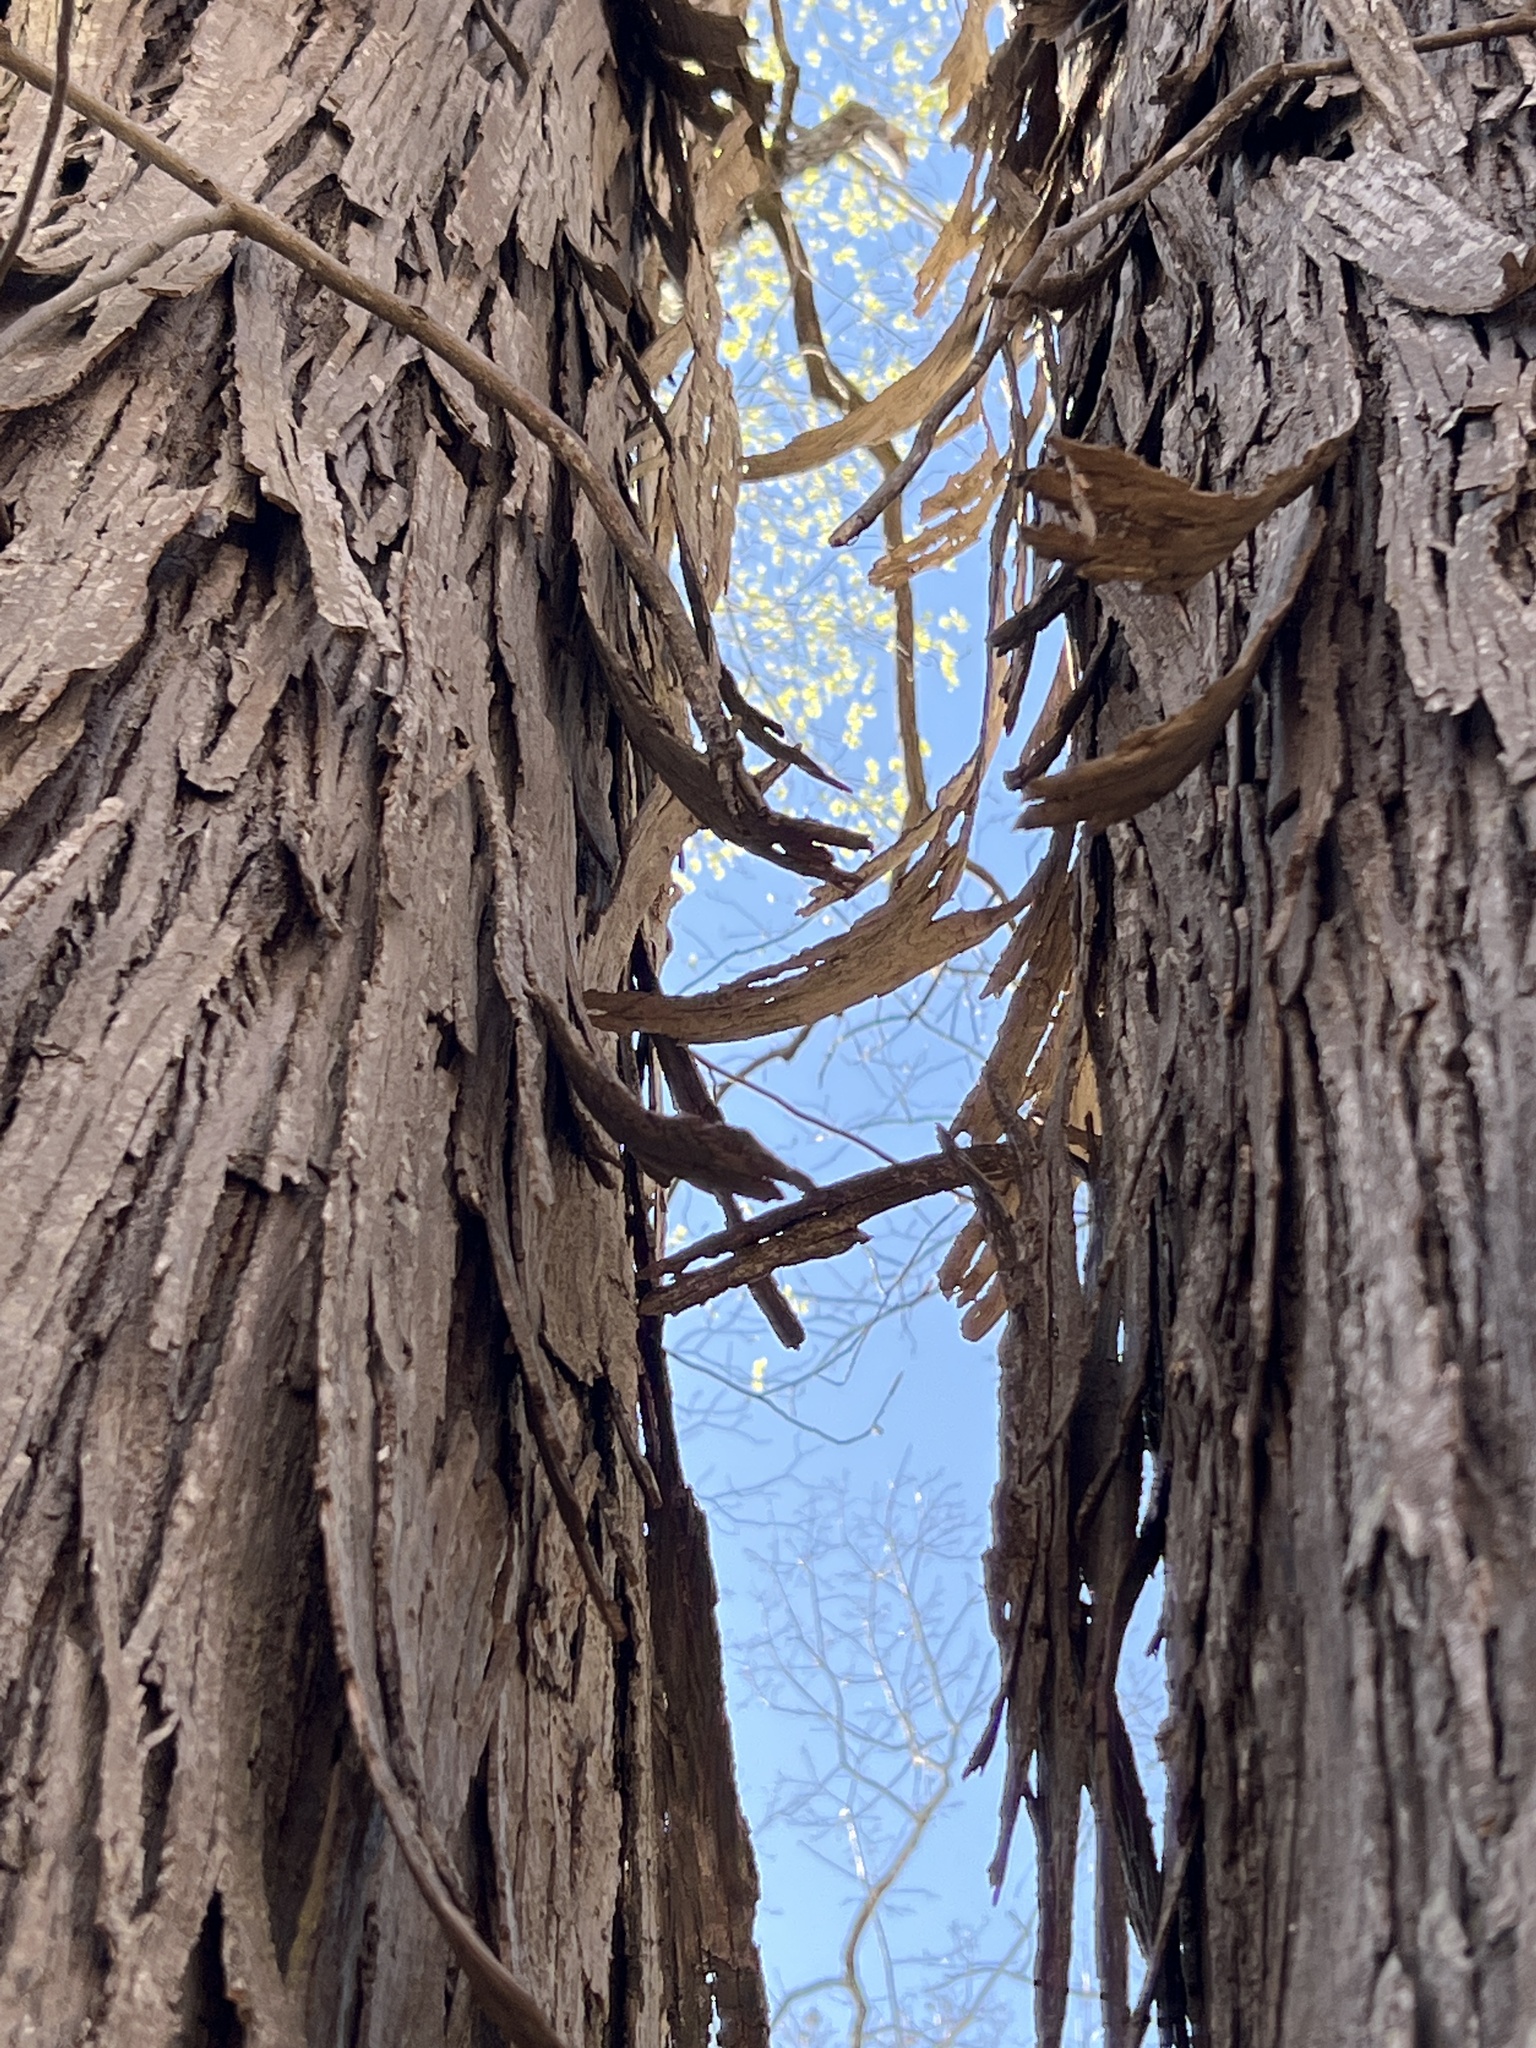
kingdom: Plantae
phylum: Tracheophyta
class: Magnoliopsida
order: Fagales
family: Juglandaceae
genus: Carya
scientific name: Carya carolinae-septentrionalis
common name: Carolina hickory
